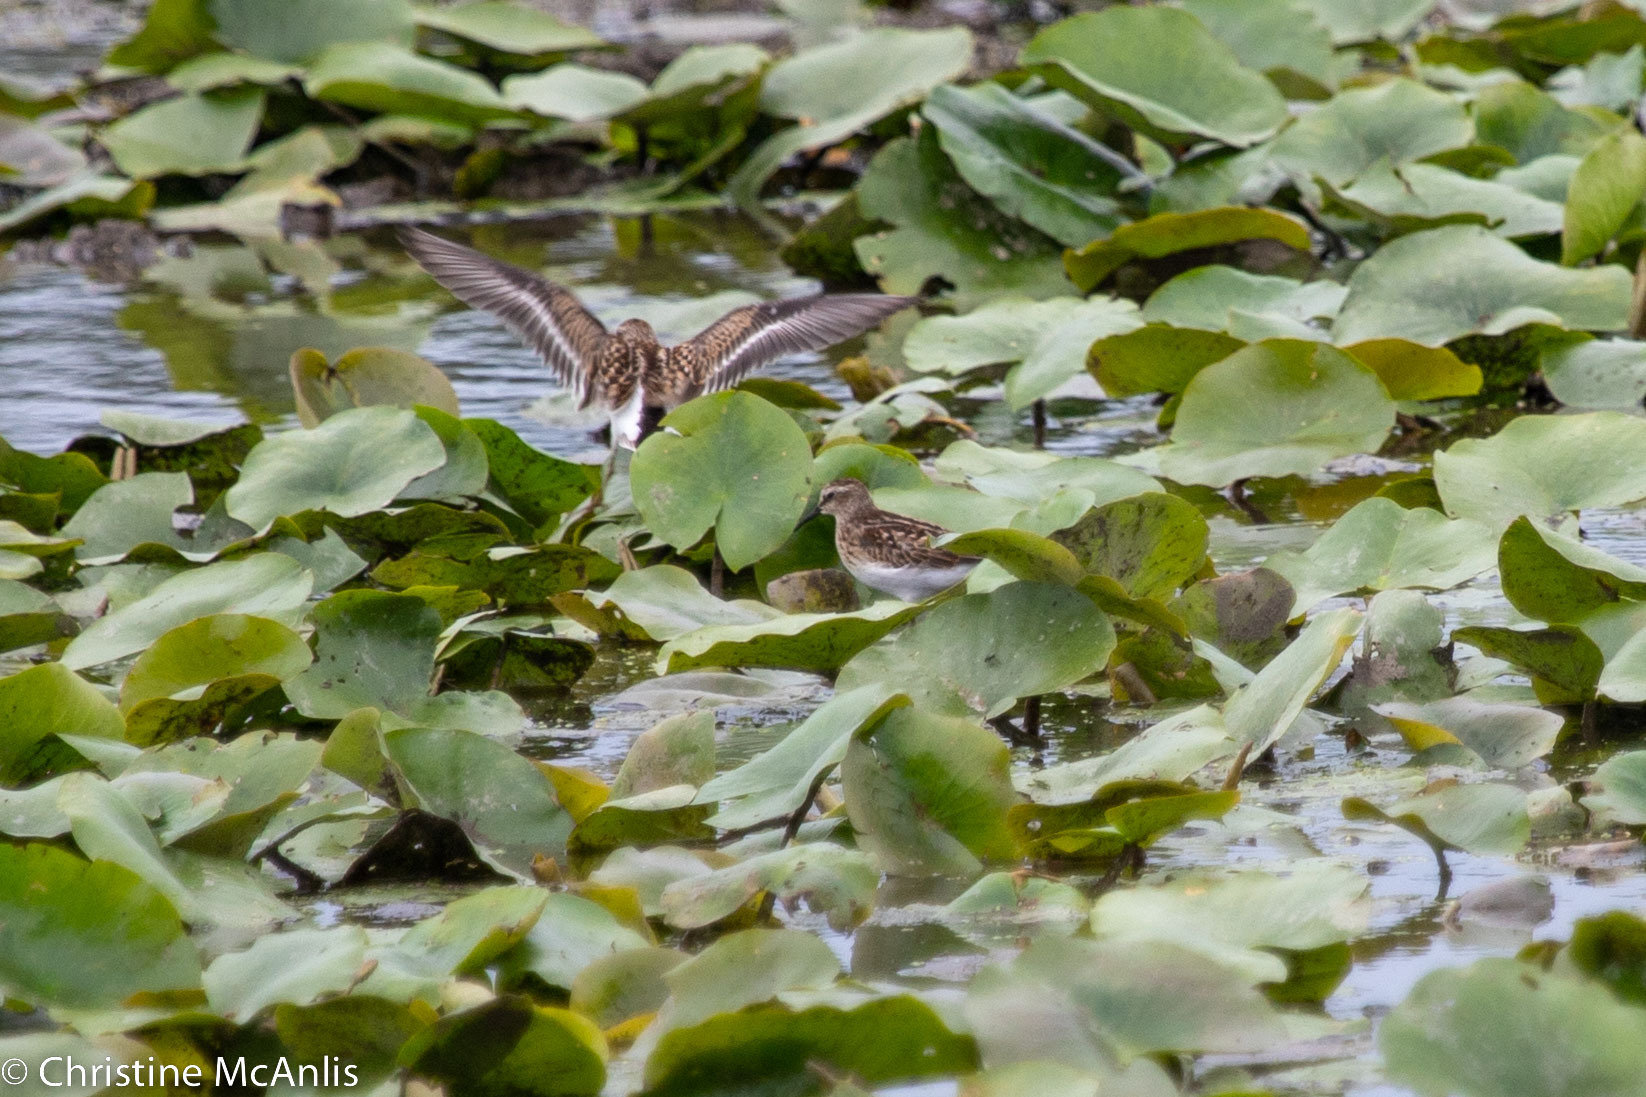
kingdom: Animalia
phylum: Chordata
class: Aves
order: Charadriiformes
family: Scolopacidae
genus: Calidris
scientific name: Calidris minutilla
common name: Least sandpiper
